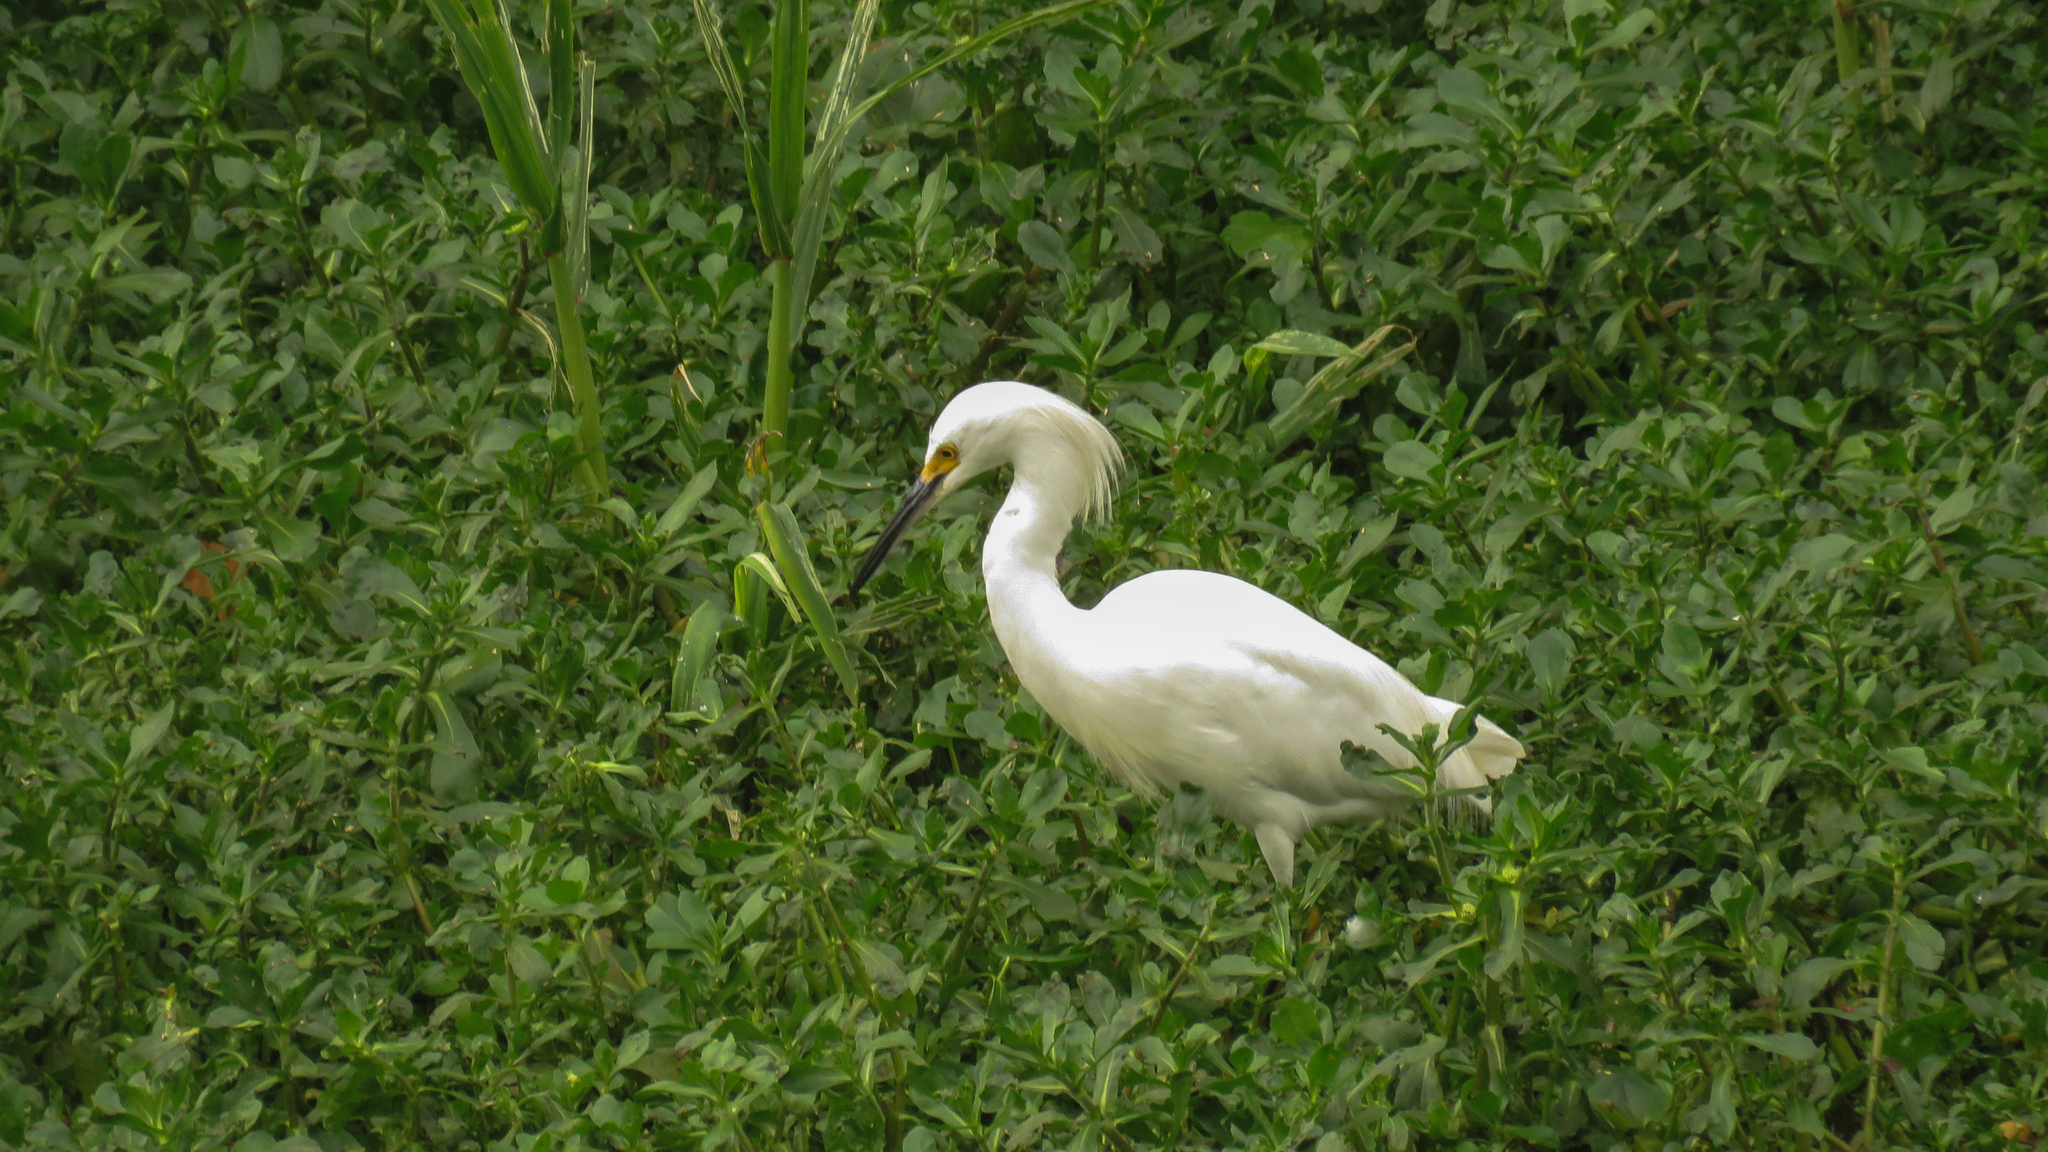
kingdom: Animalia
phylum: Chordata
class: Aves
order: Pelecaniformes
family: Ardeidae
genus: Egretta
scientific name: Egretta thula
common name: Snowy egret
